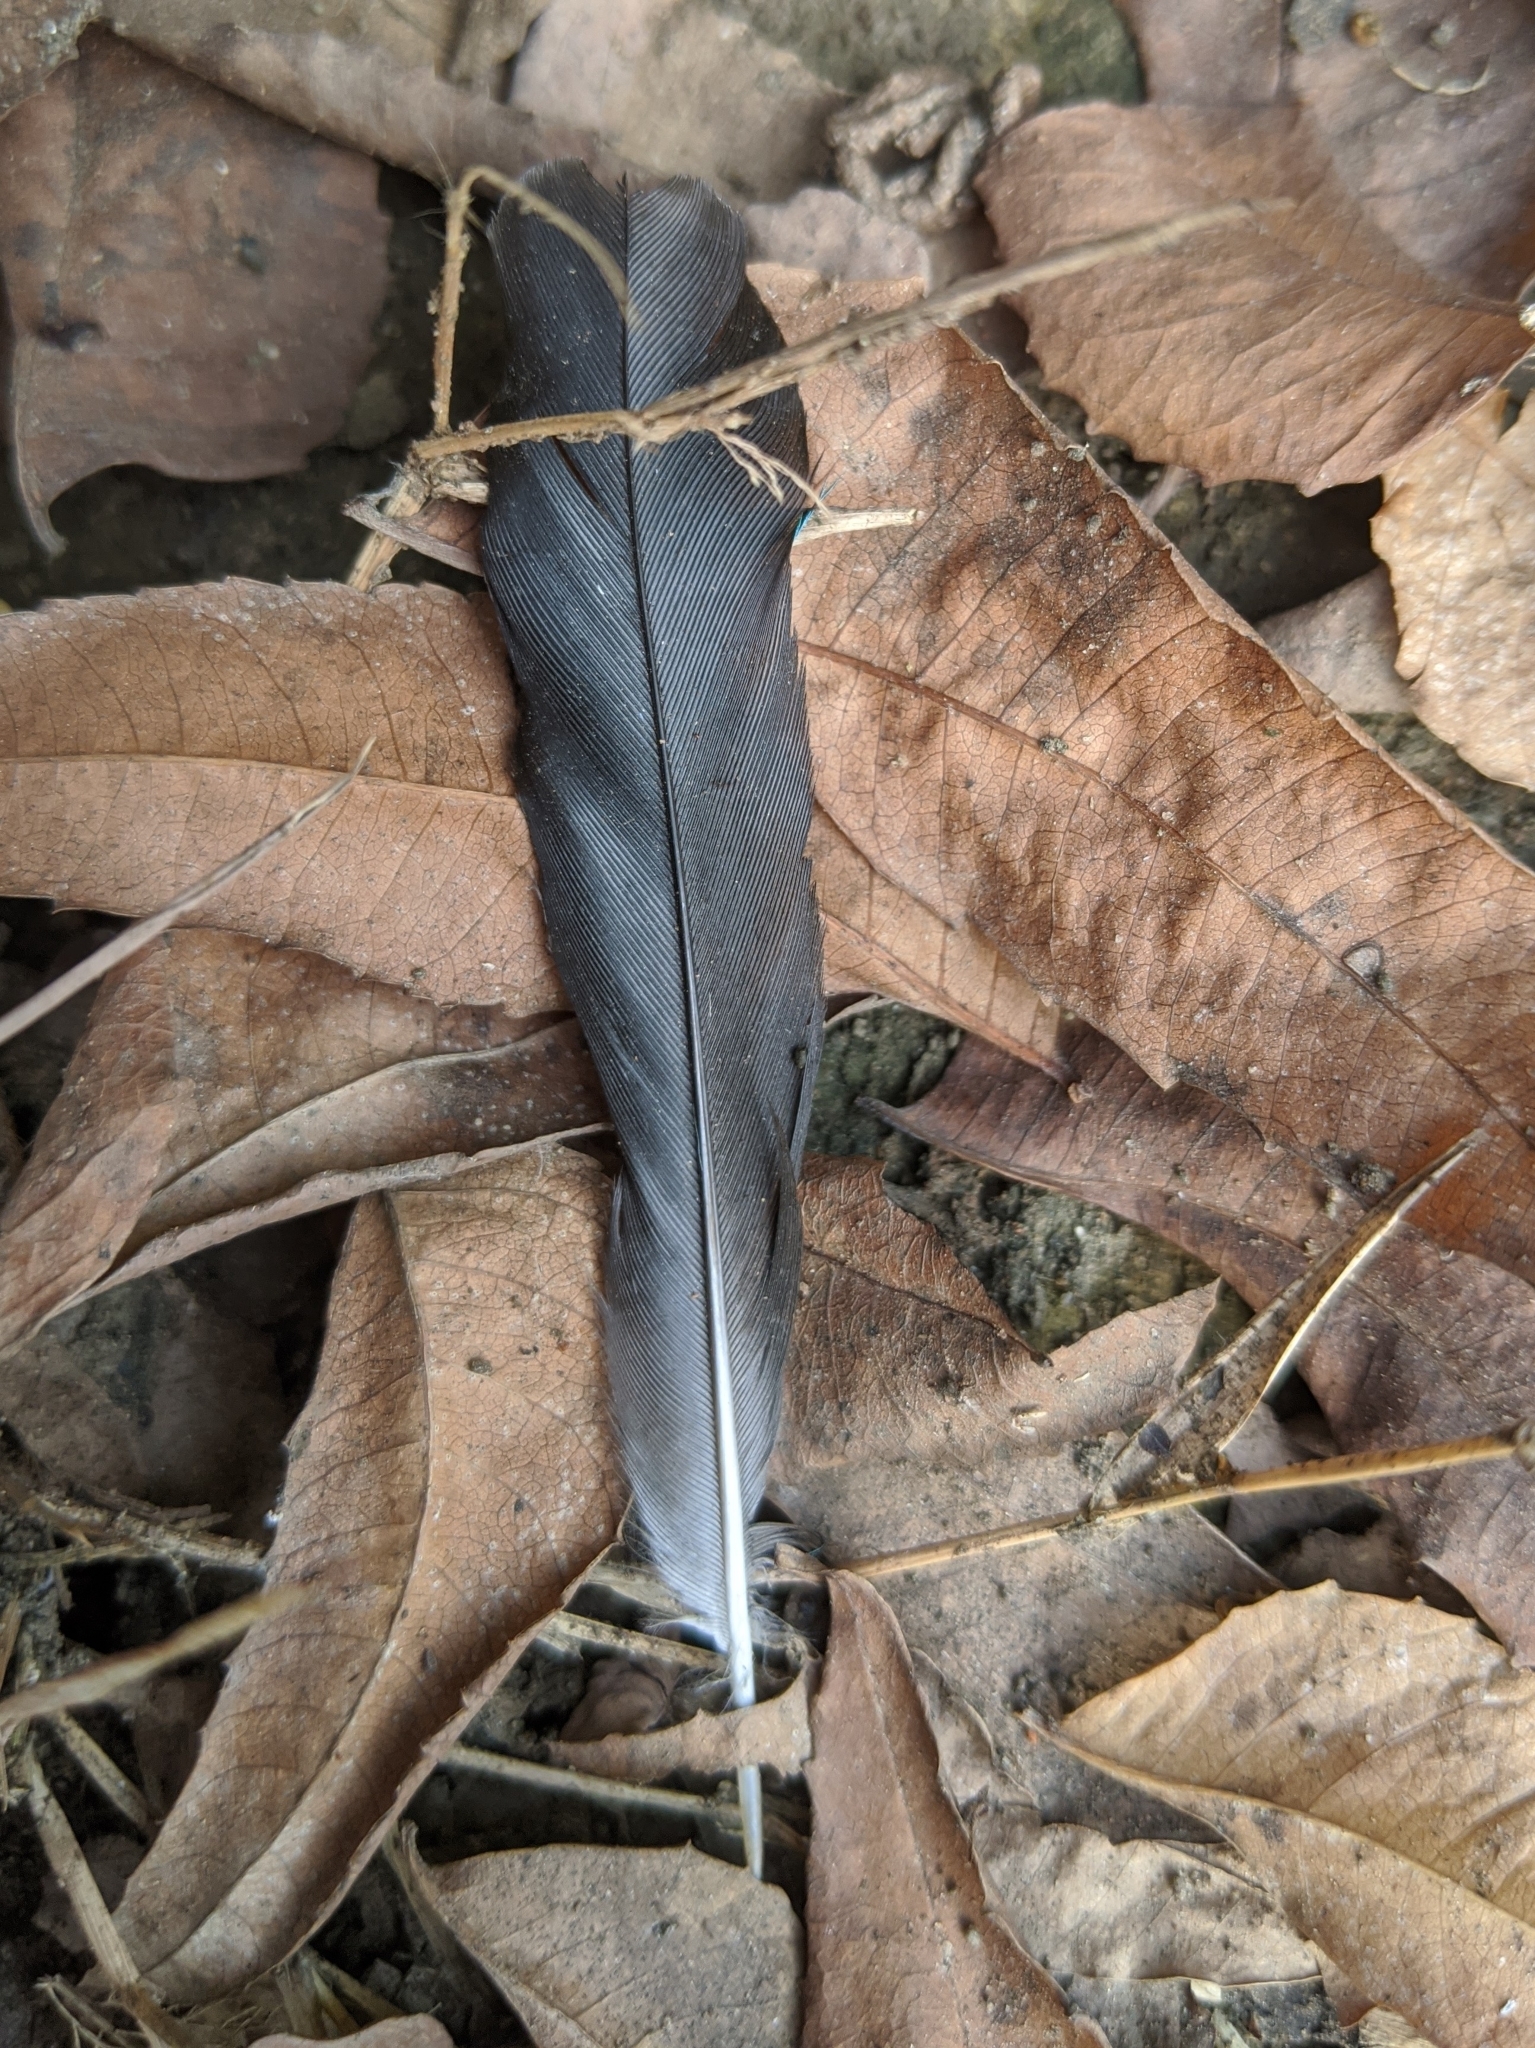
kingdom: Animalia
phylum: Chordata
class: Aves
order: Coraciiformes
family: Alcedinidae
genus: Halcyon
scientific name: Halcyon senegalensis
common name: Woodland kingfisher
